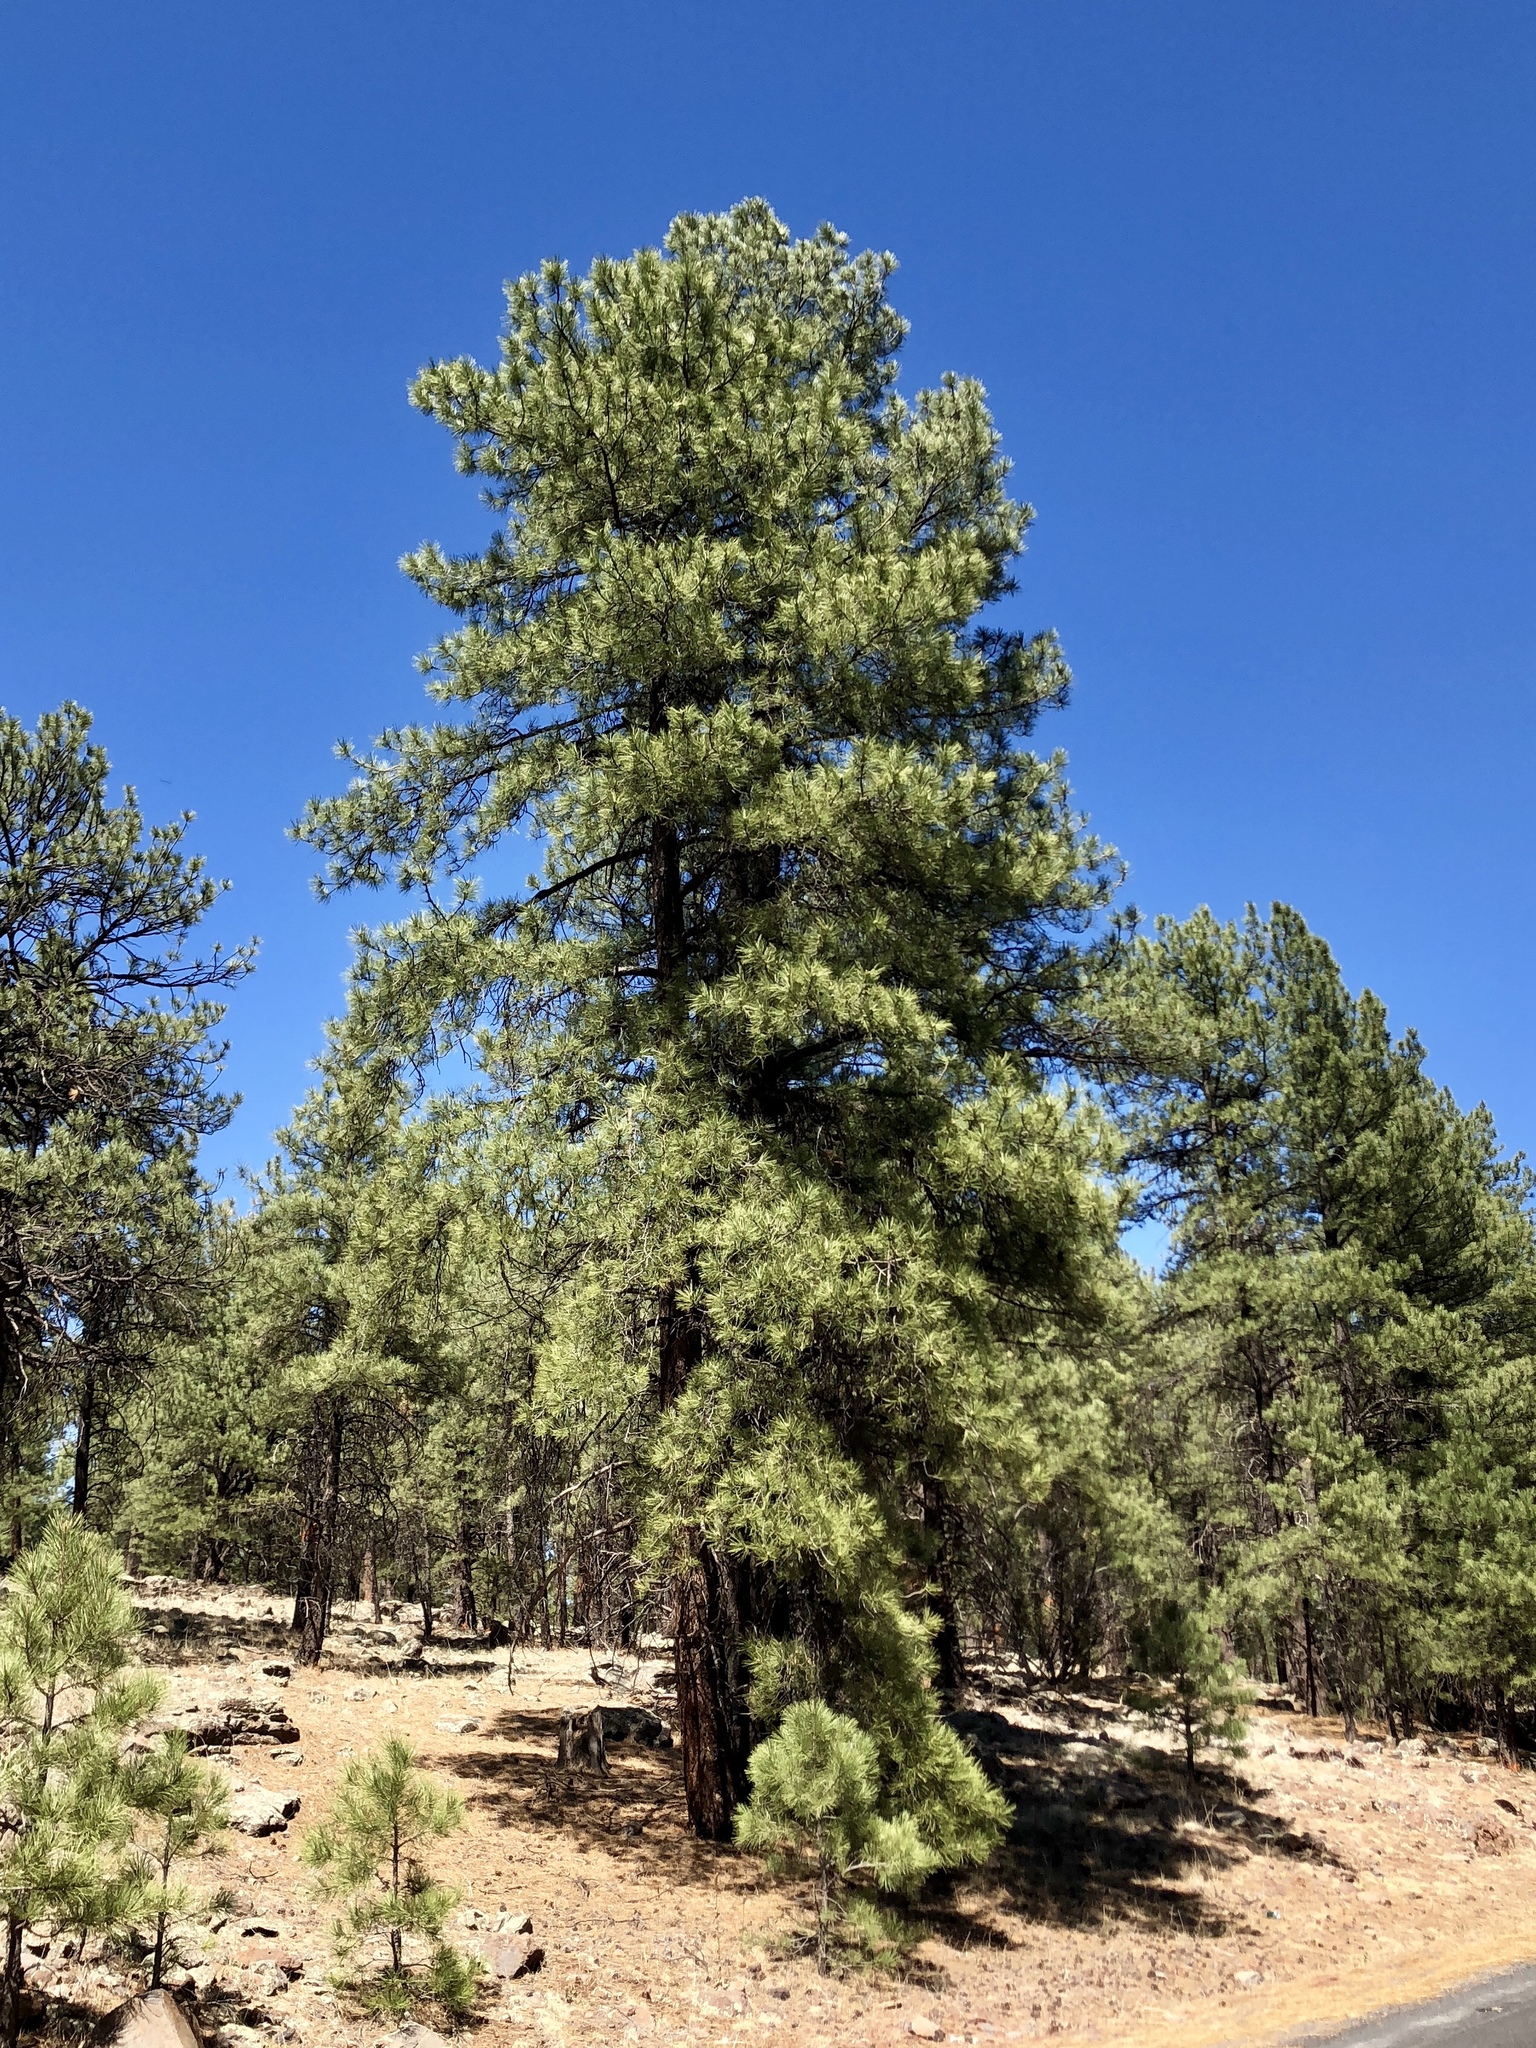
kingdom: Plantae
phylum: Tracheophyta
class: Pinopsida
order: Pinales
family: Pinaceae
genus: Pinus
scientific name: Pinus ponderosa
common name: Western yellow-pine
